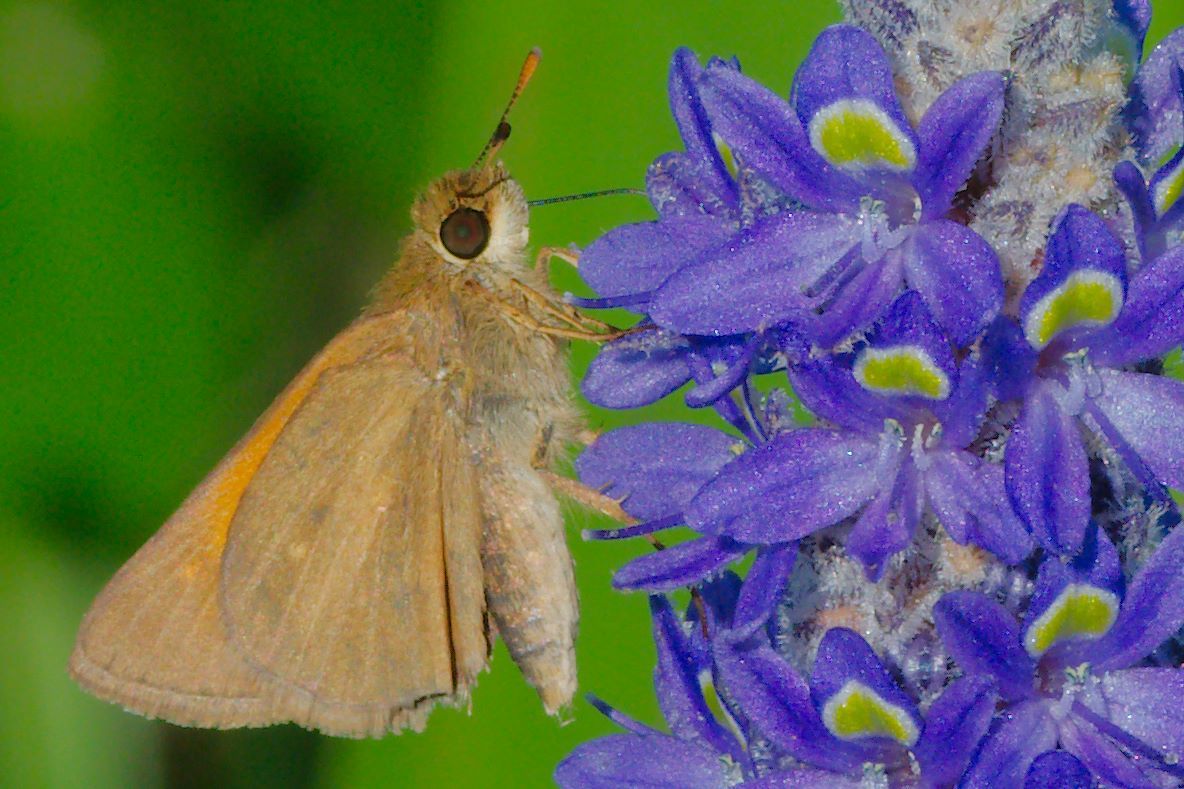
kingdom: Animalia
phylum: Arthropoda
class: Insecta
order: Lepidoptera
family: Hesperiidae
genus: Poanes
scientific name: Poanes aaroni
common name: Aaron's skipper
